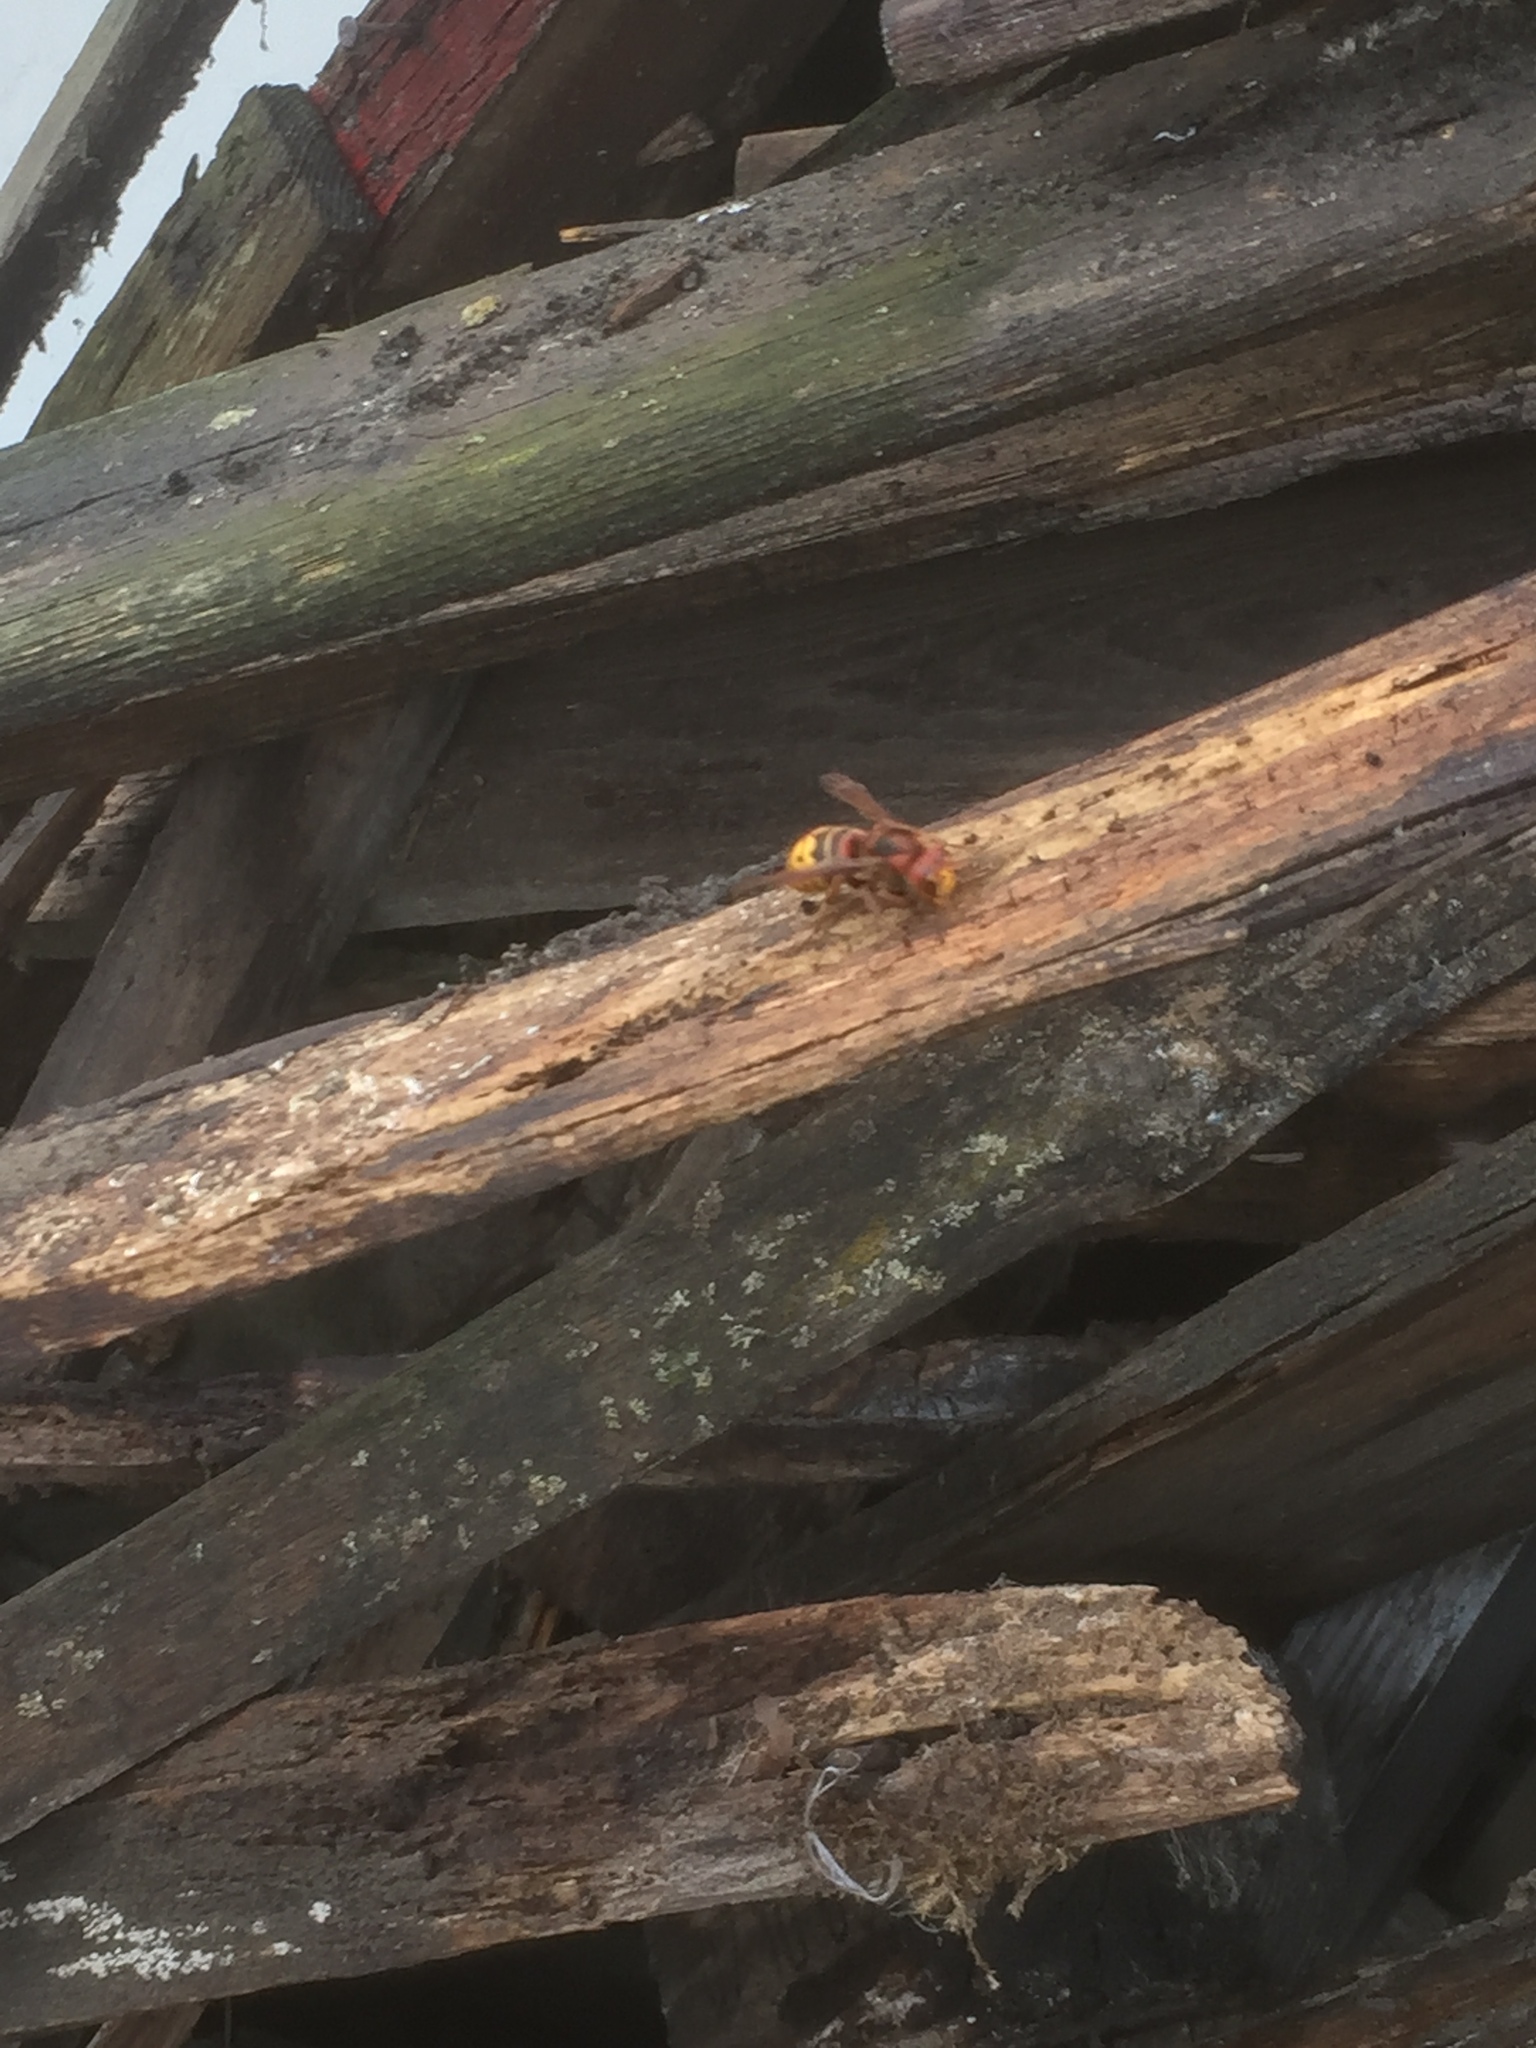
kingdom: Animalia
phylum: Arthropoda
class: Insecta
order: Hymenoptera
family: Vespidae
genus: Vespa
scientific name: Vespa crabro
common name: Hornet
